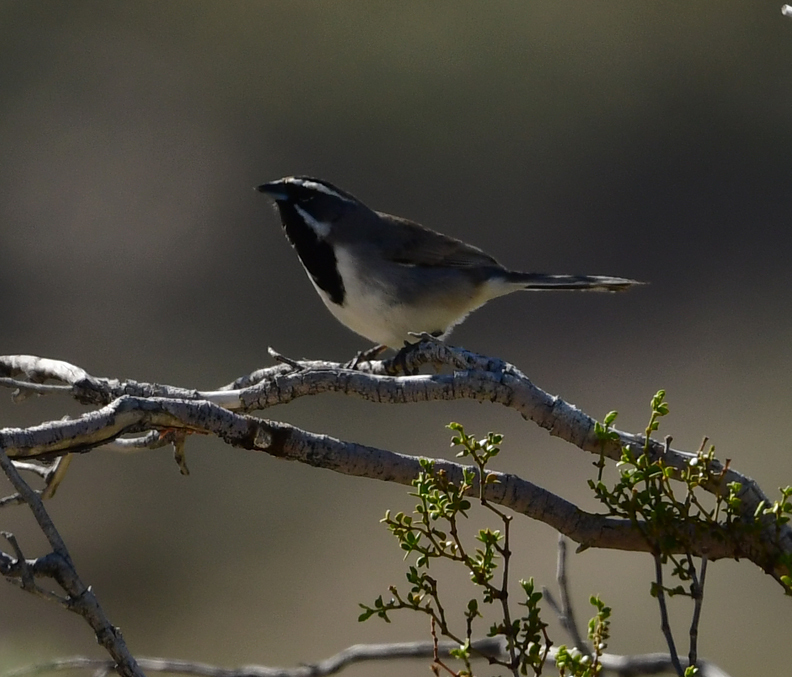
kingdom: Animalia
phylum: Chordata
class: Aves
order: Passeriformes
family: Passerellidae
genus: Amphispiza
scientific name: Amphispiza bilineata
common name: Black-throated sparrow
